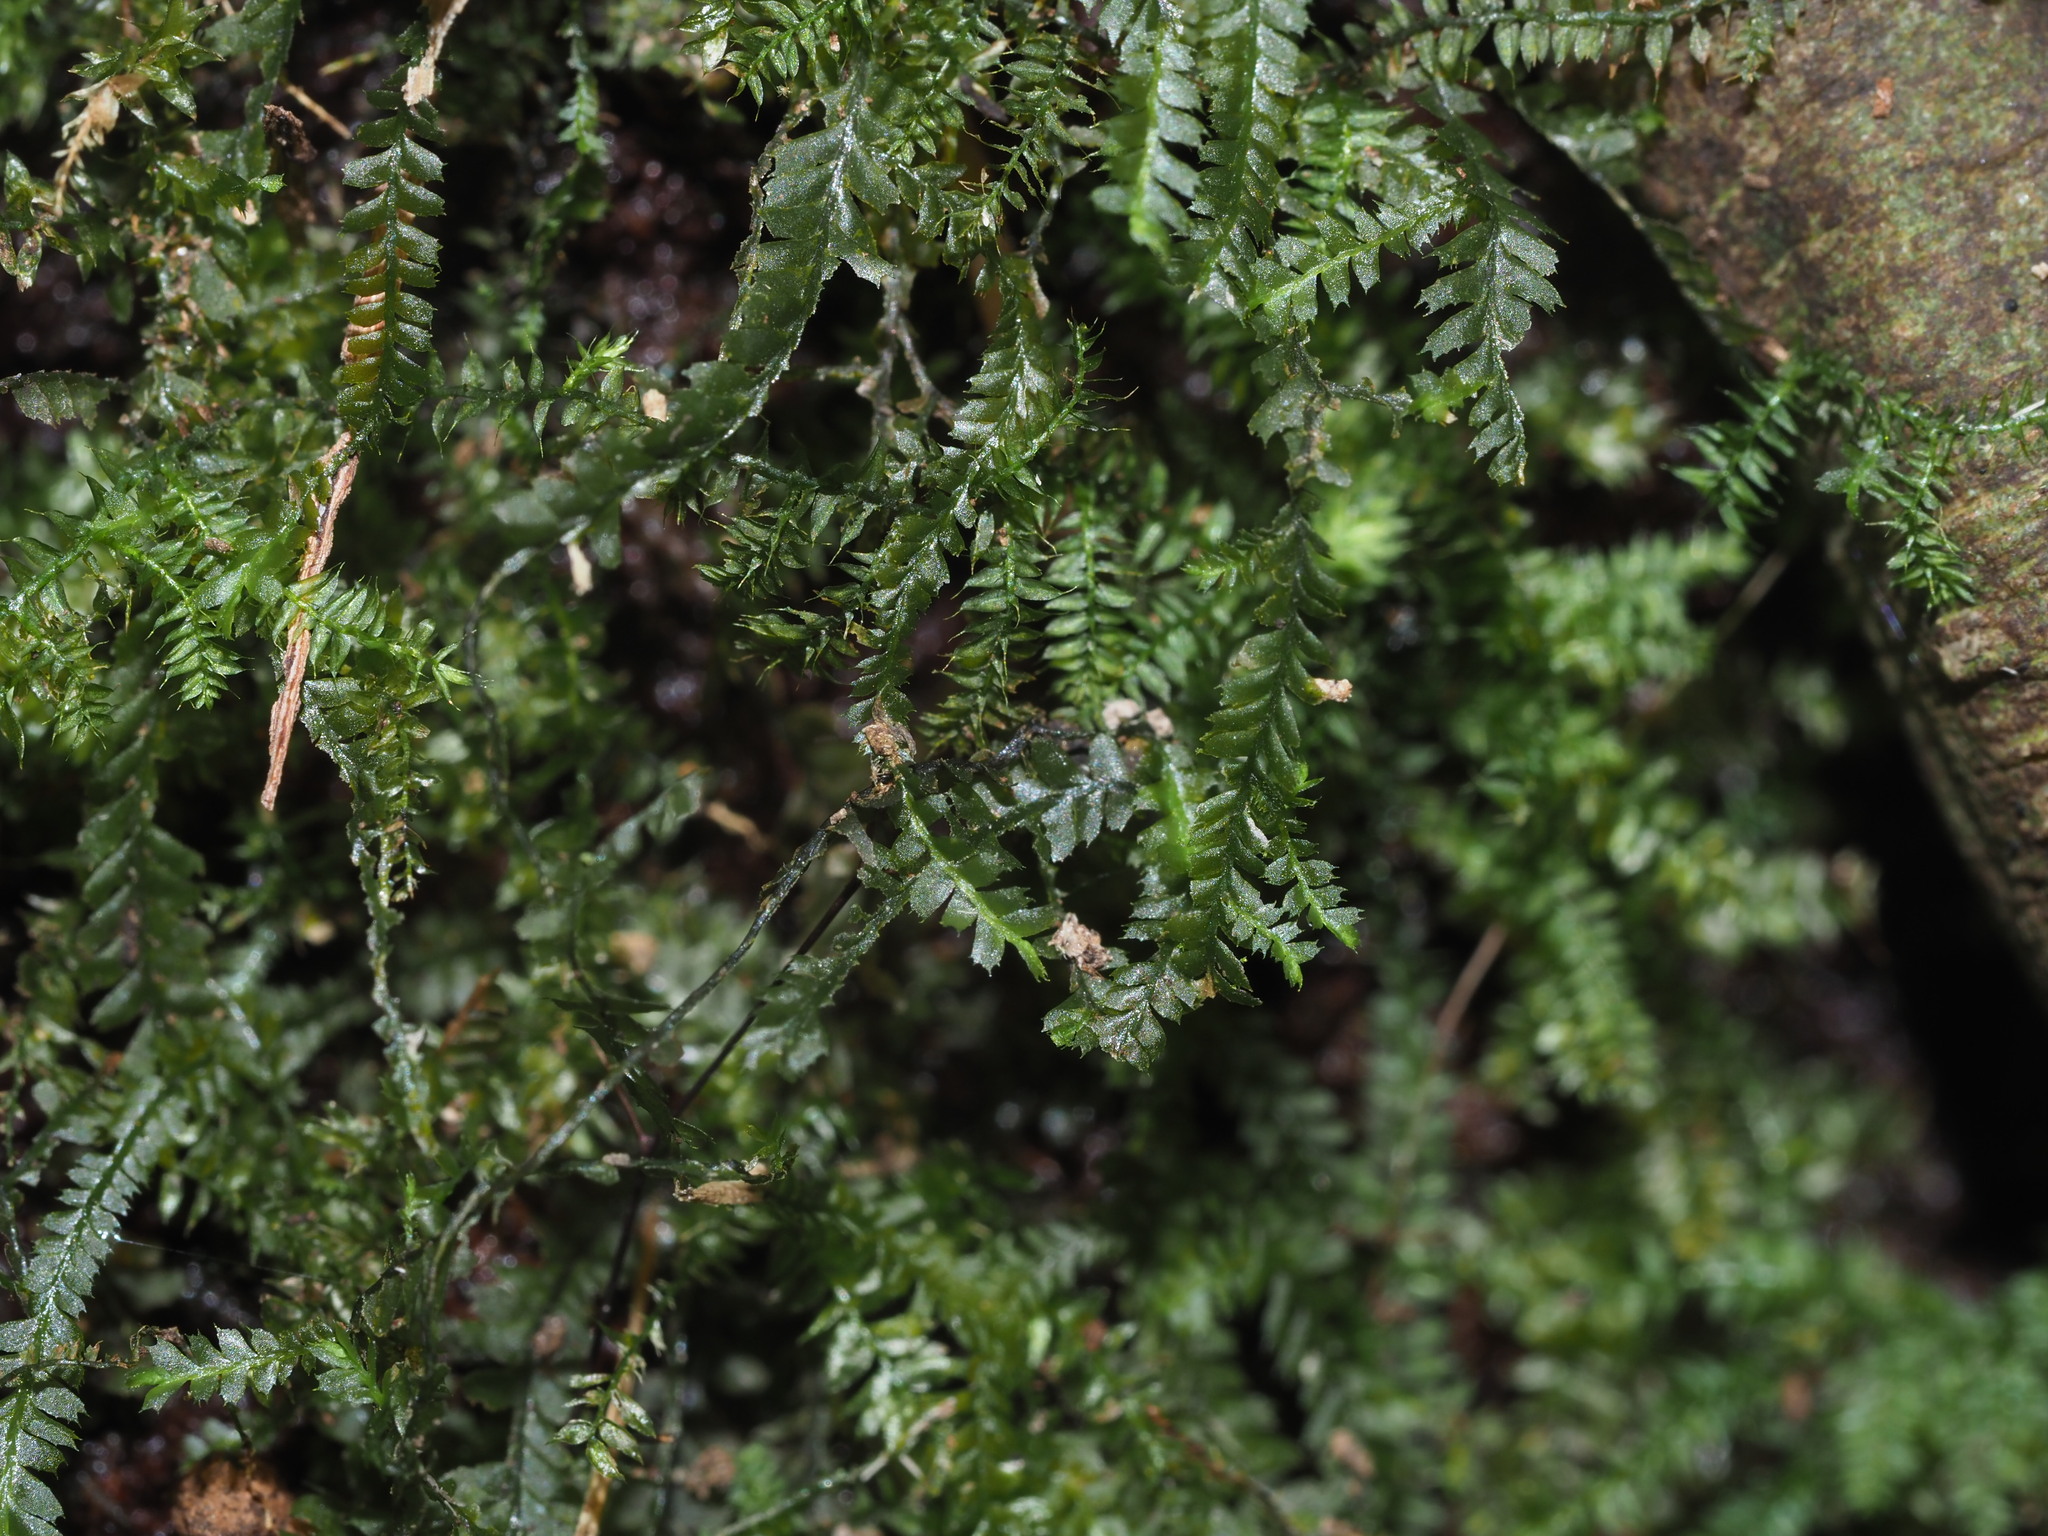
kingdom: Plantae
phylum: Marchantiophyta
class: Jungermanniopsida
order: Jungermanniales
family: Plagiochilaceae
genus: Plagiochila
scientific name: Plagiochila grossispina
